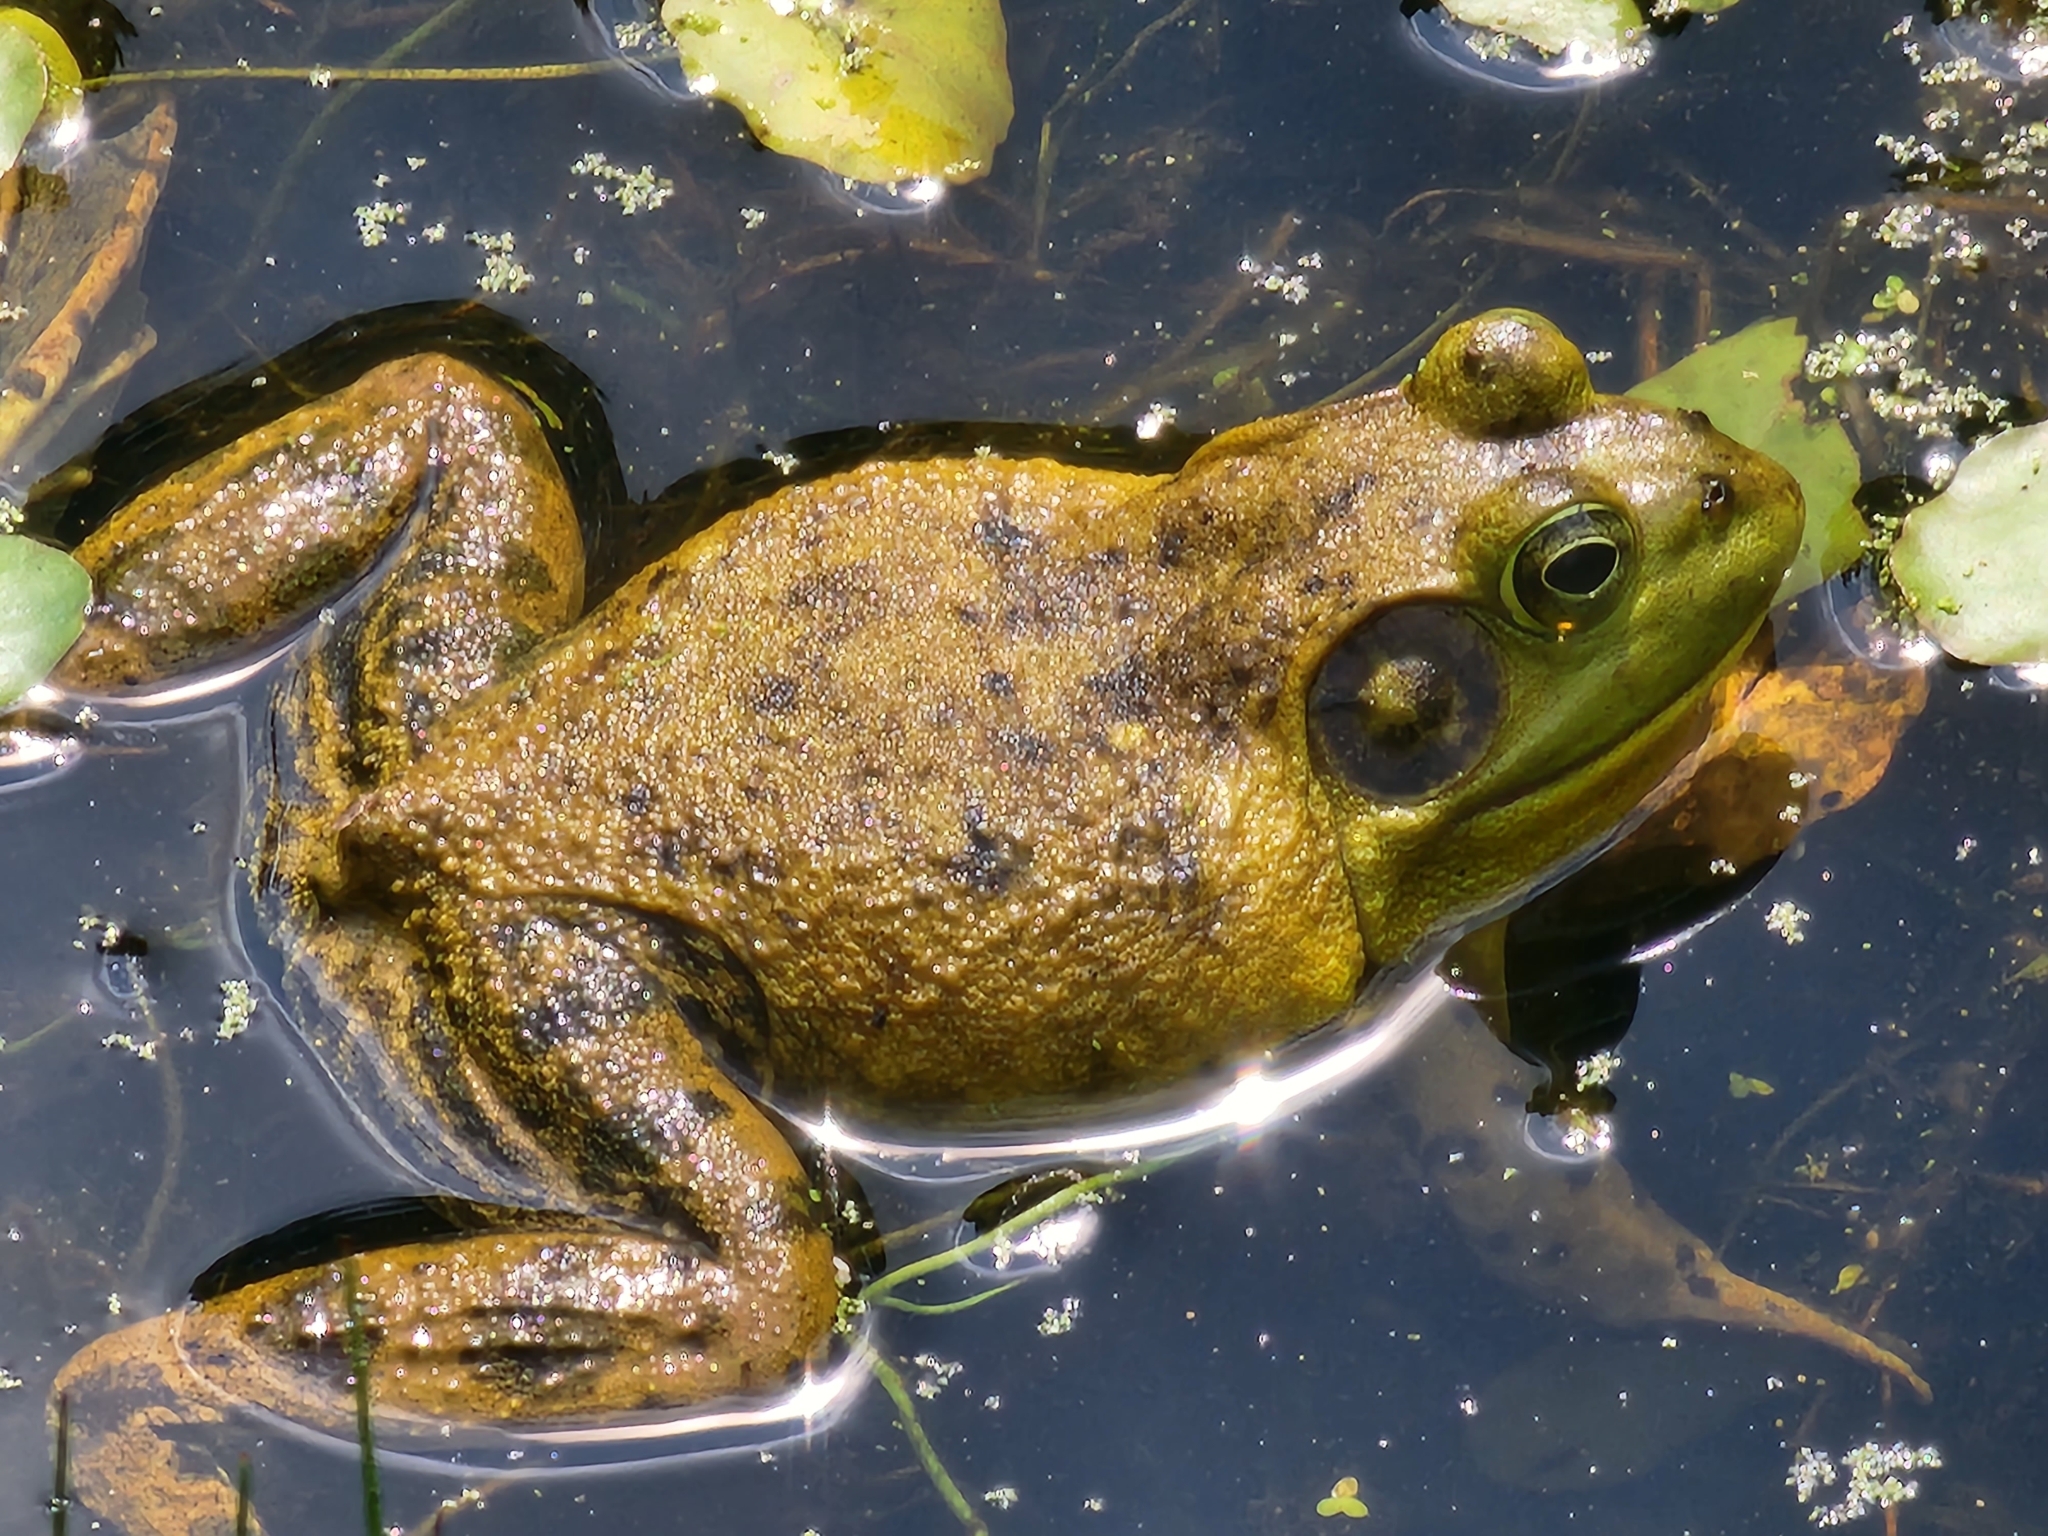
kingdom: Animalia
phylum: Chordata
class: Amphibia
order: Anura
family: Ranidae
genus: Lithobates
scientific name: Lithobates catesbeianus
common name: American bullfrog
